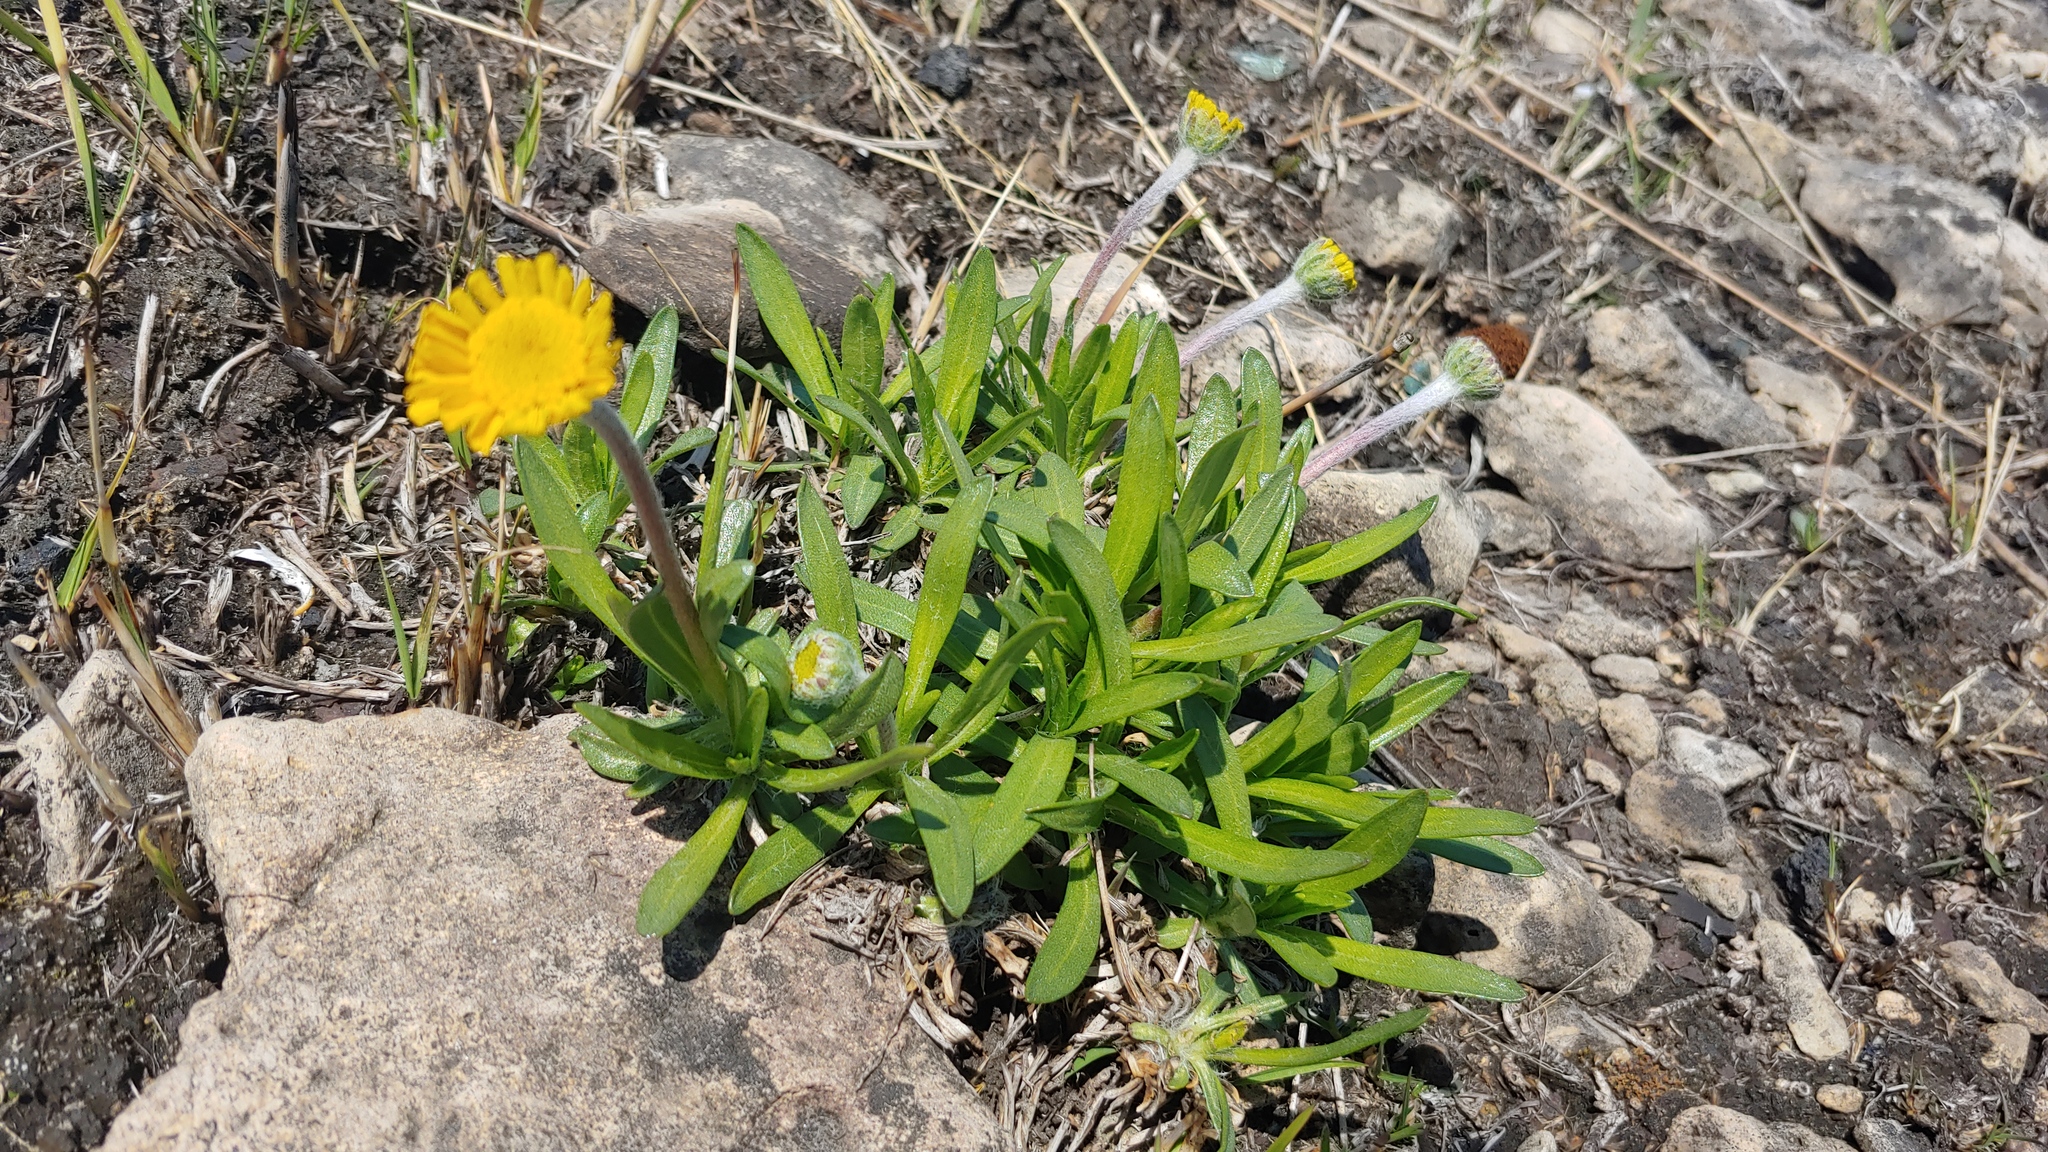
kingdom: Plantae
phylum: Tracheophyta
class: Magnoliopsida
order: Asterales
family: Asteraceae
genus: Tetraneuris
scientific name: Tetraneuris herbacea
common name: Lakeside daisy
